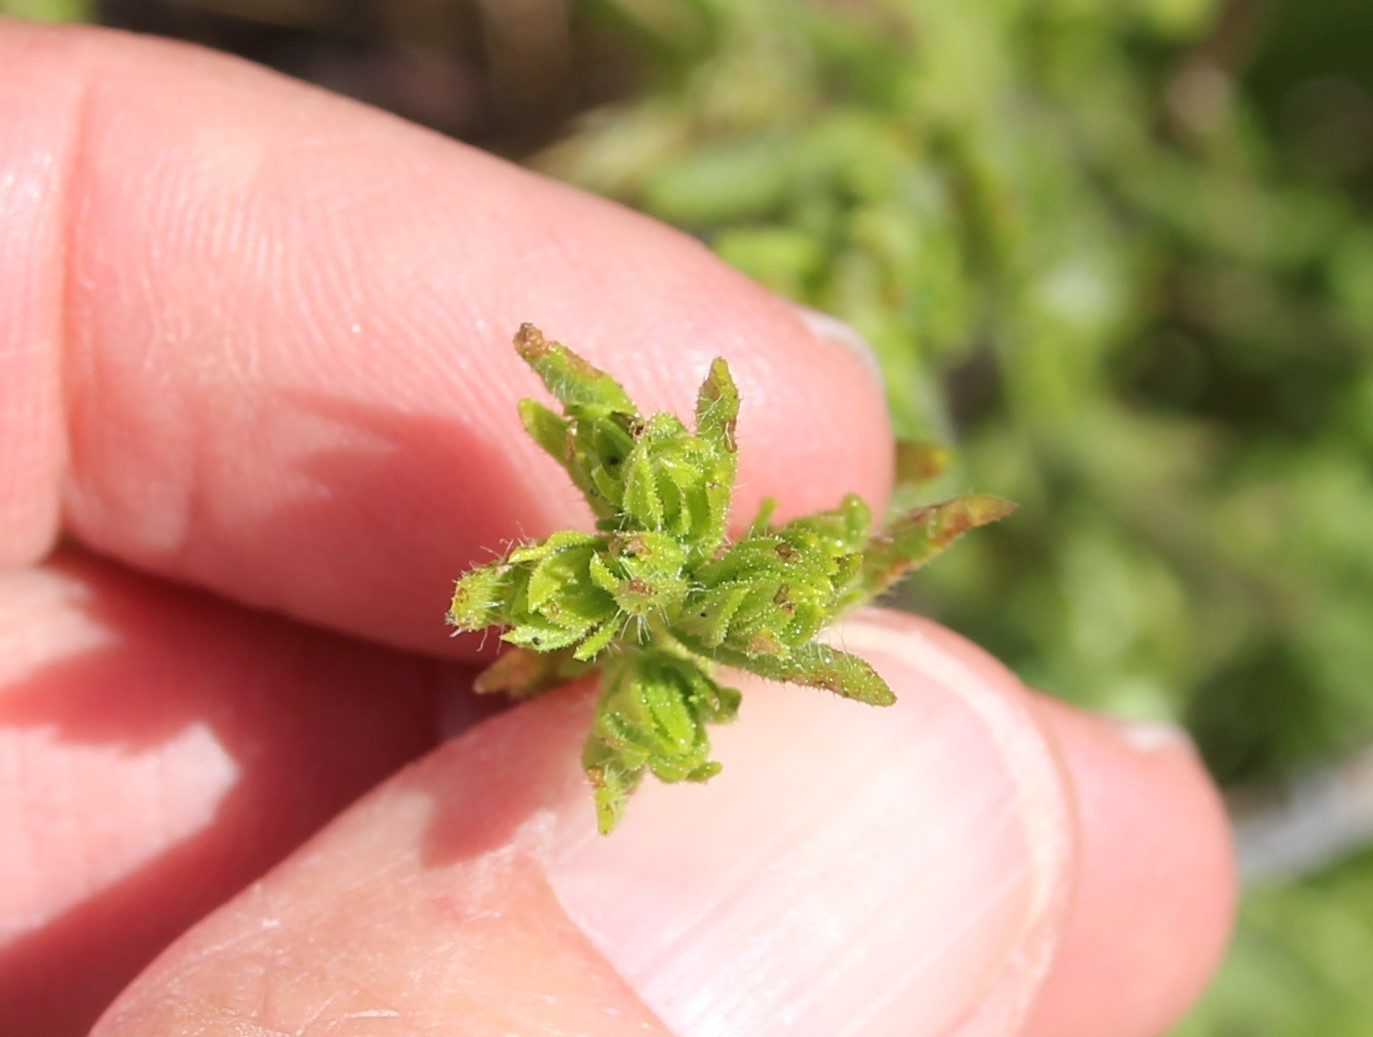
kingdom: Plantae
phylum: Tracheophyta
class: Magnoliopsida
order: Asterales
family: Asteraceae
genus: Deinandra
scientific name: Deinandra fasciculata
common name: Clustered tarweed
